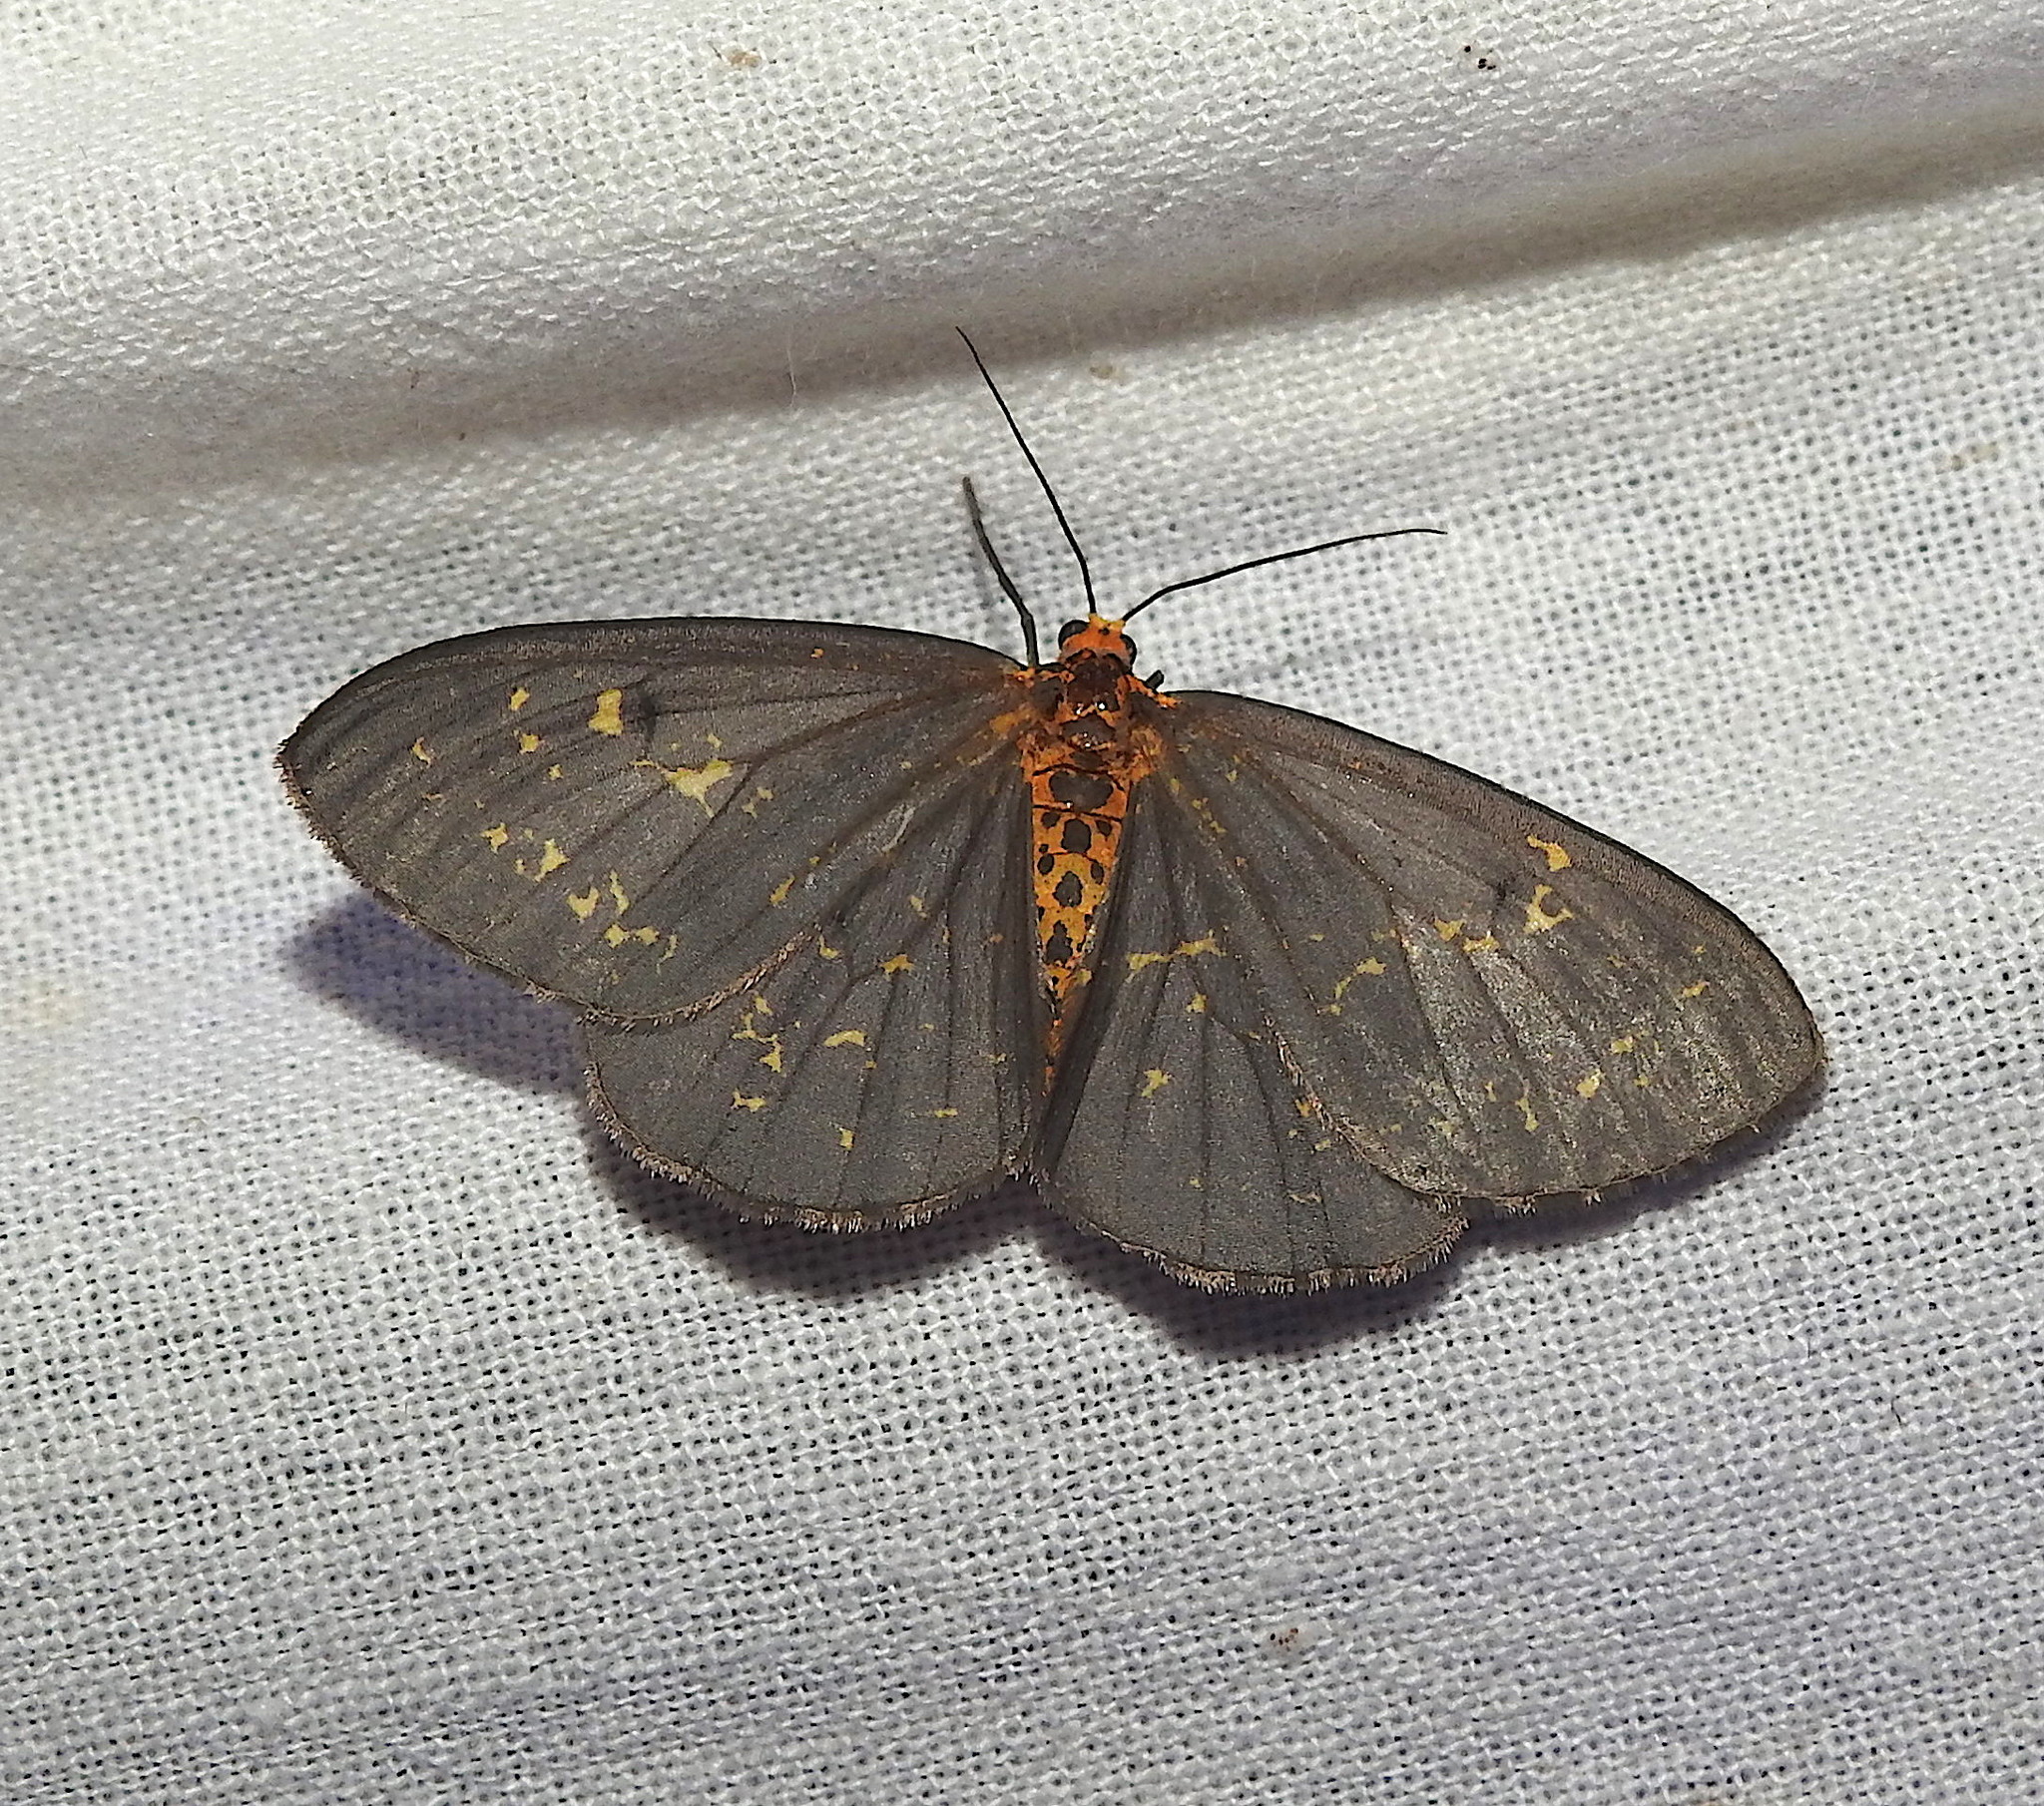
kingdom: Animalia
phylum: Arthropoda
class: Insecta
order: Lepidoptera
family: Geometridae
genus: Abraxas
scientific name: Abraxas poliaria
